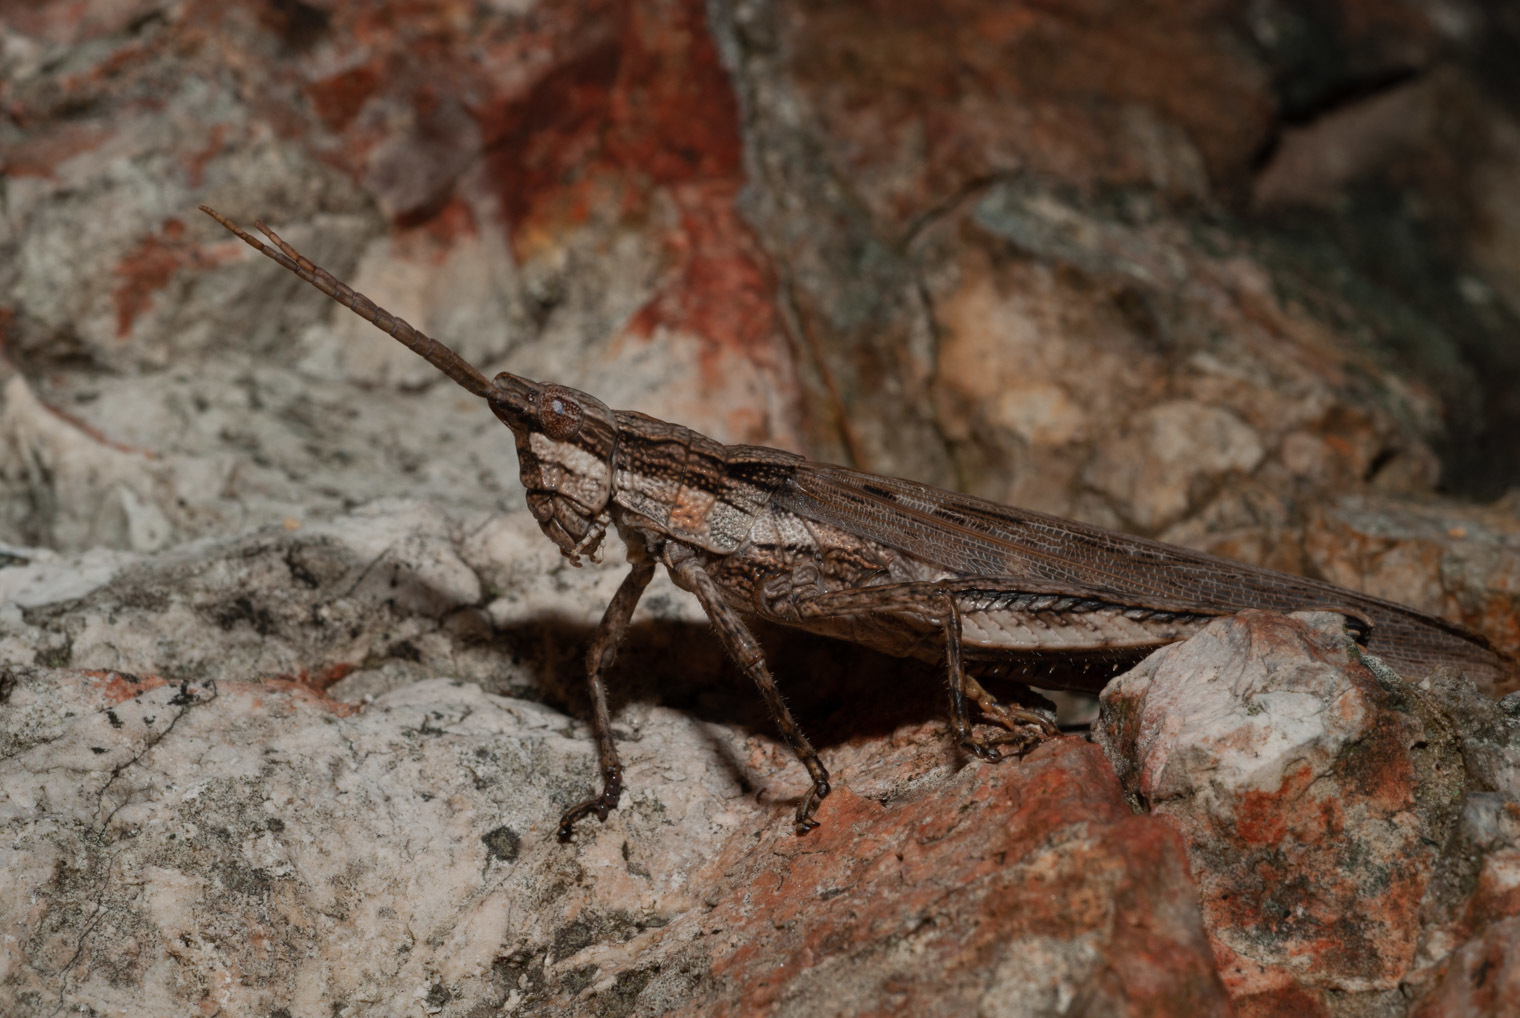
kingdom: Animalia
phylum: Arthropoda
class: Insecta
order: Orthoptera
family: Acrididae
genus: Coryphistes
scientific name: Coryphistes ruricola
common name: Bark-mimicking grasshopper
